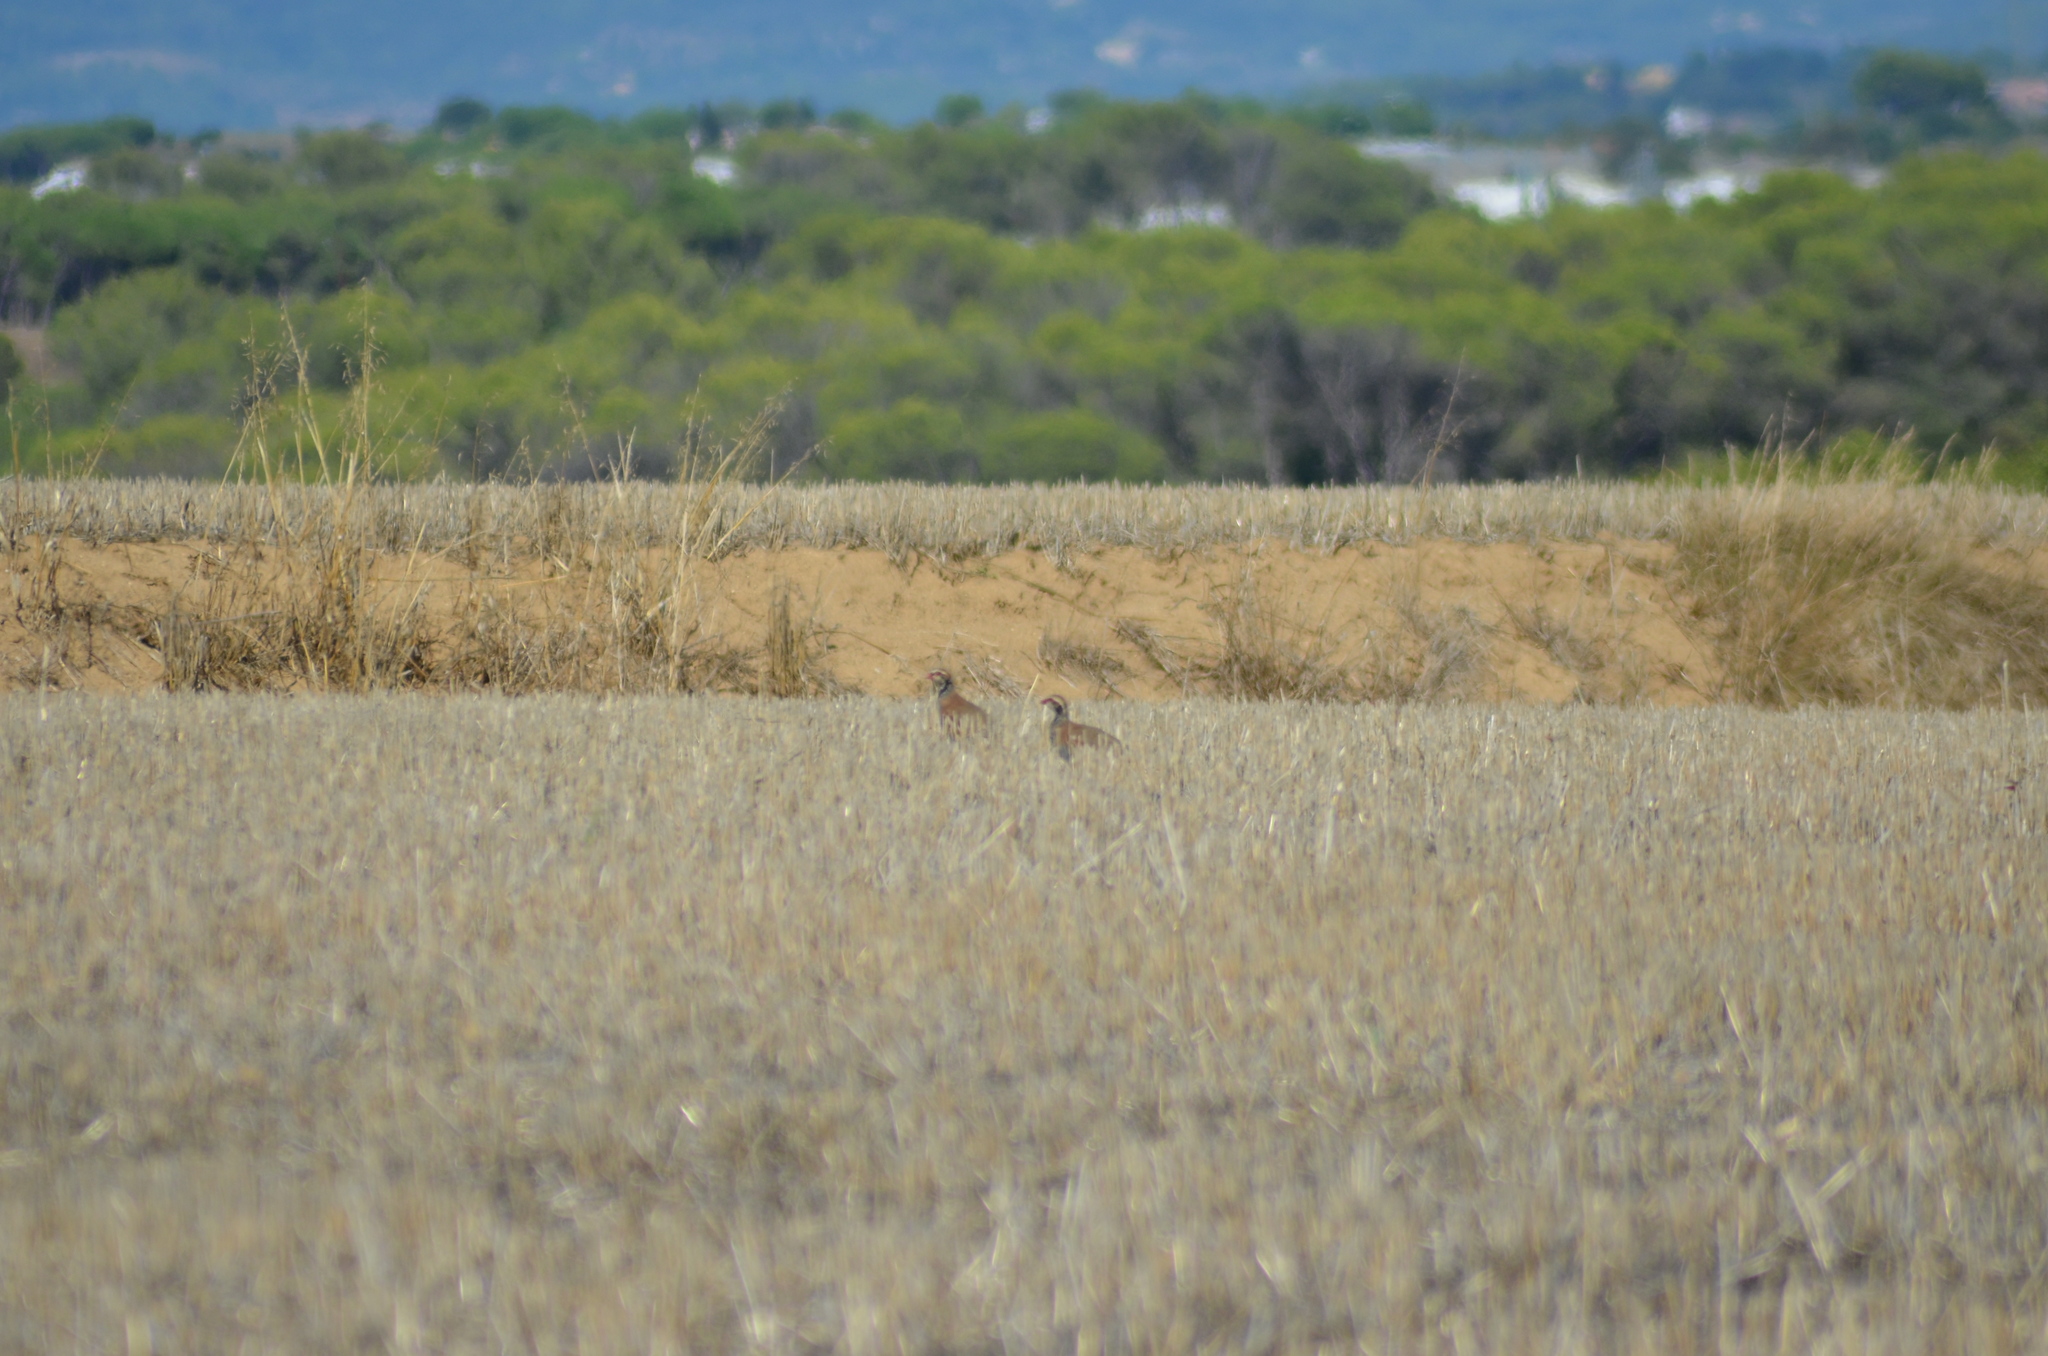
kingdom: Animalia
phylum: Chordata
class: Aves
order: Galliformes
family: Phasianidae
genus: Alectoris
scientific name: Alectoris rufa
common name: Red-legged partridge
